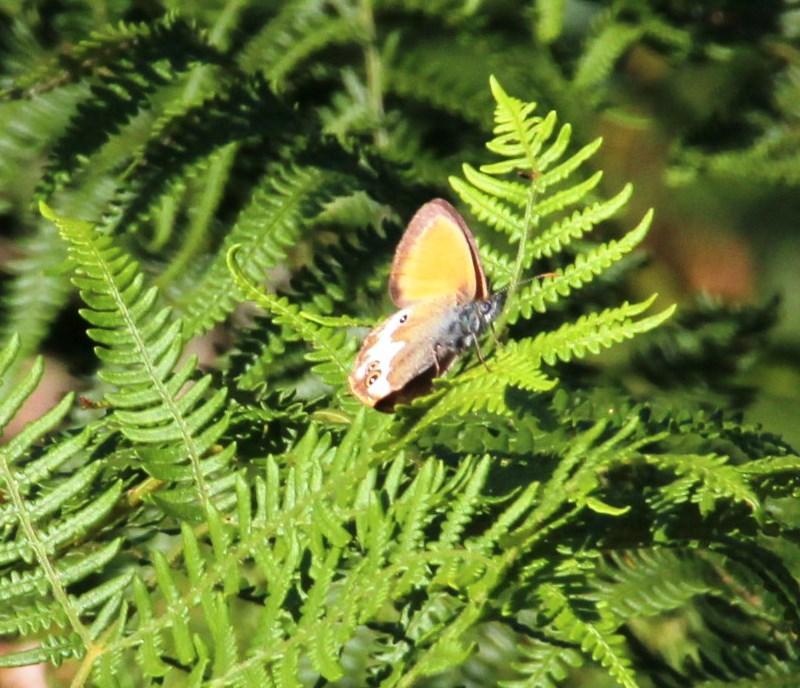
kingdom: Animalia
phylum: Arthropoda
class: Insecta
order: Lepidoptera
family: Nymphalidae
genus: Coenonympha
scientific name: Coenonympha arcania
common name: Pearly heath
